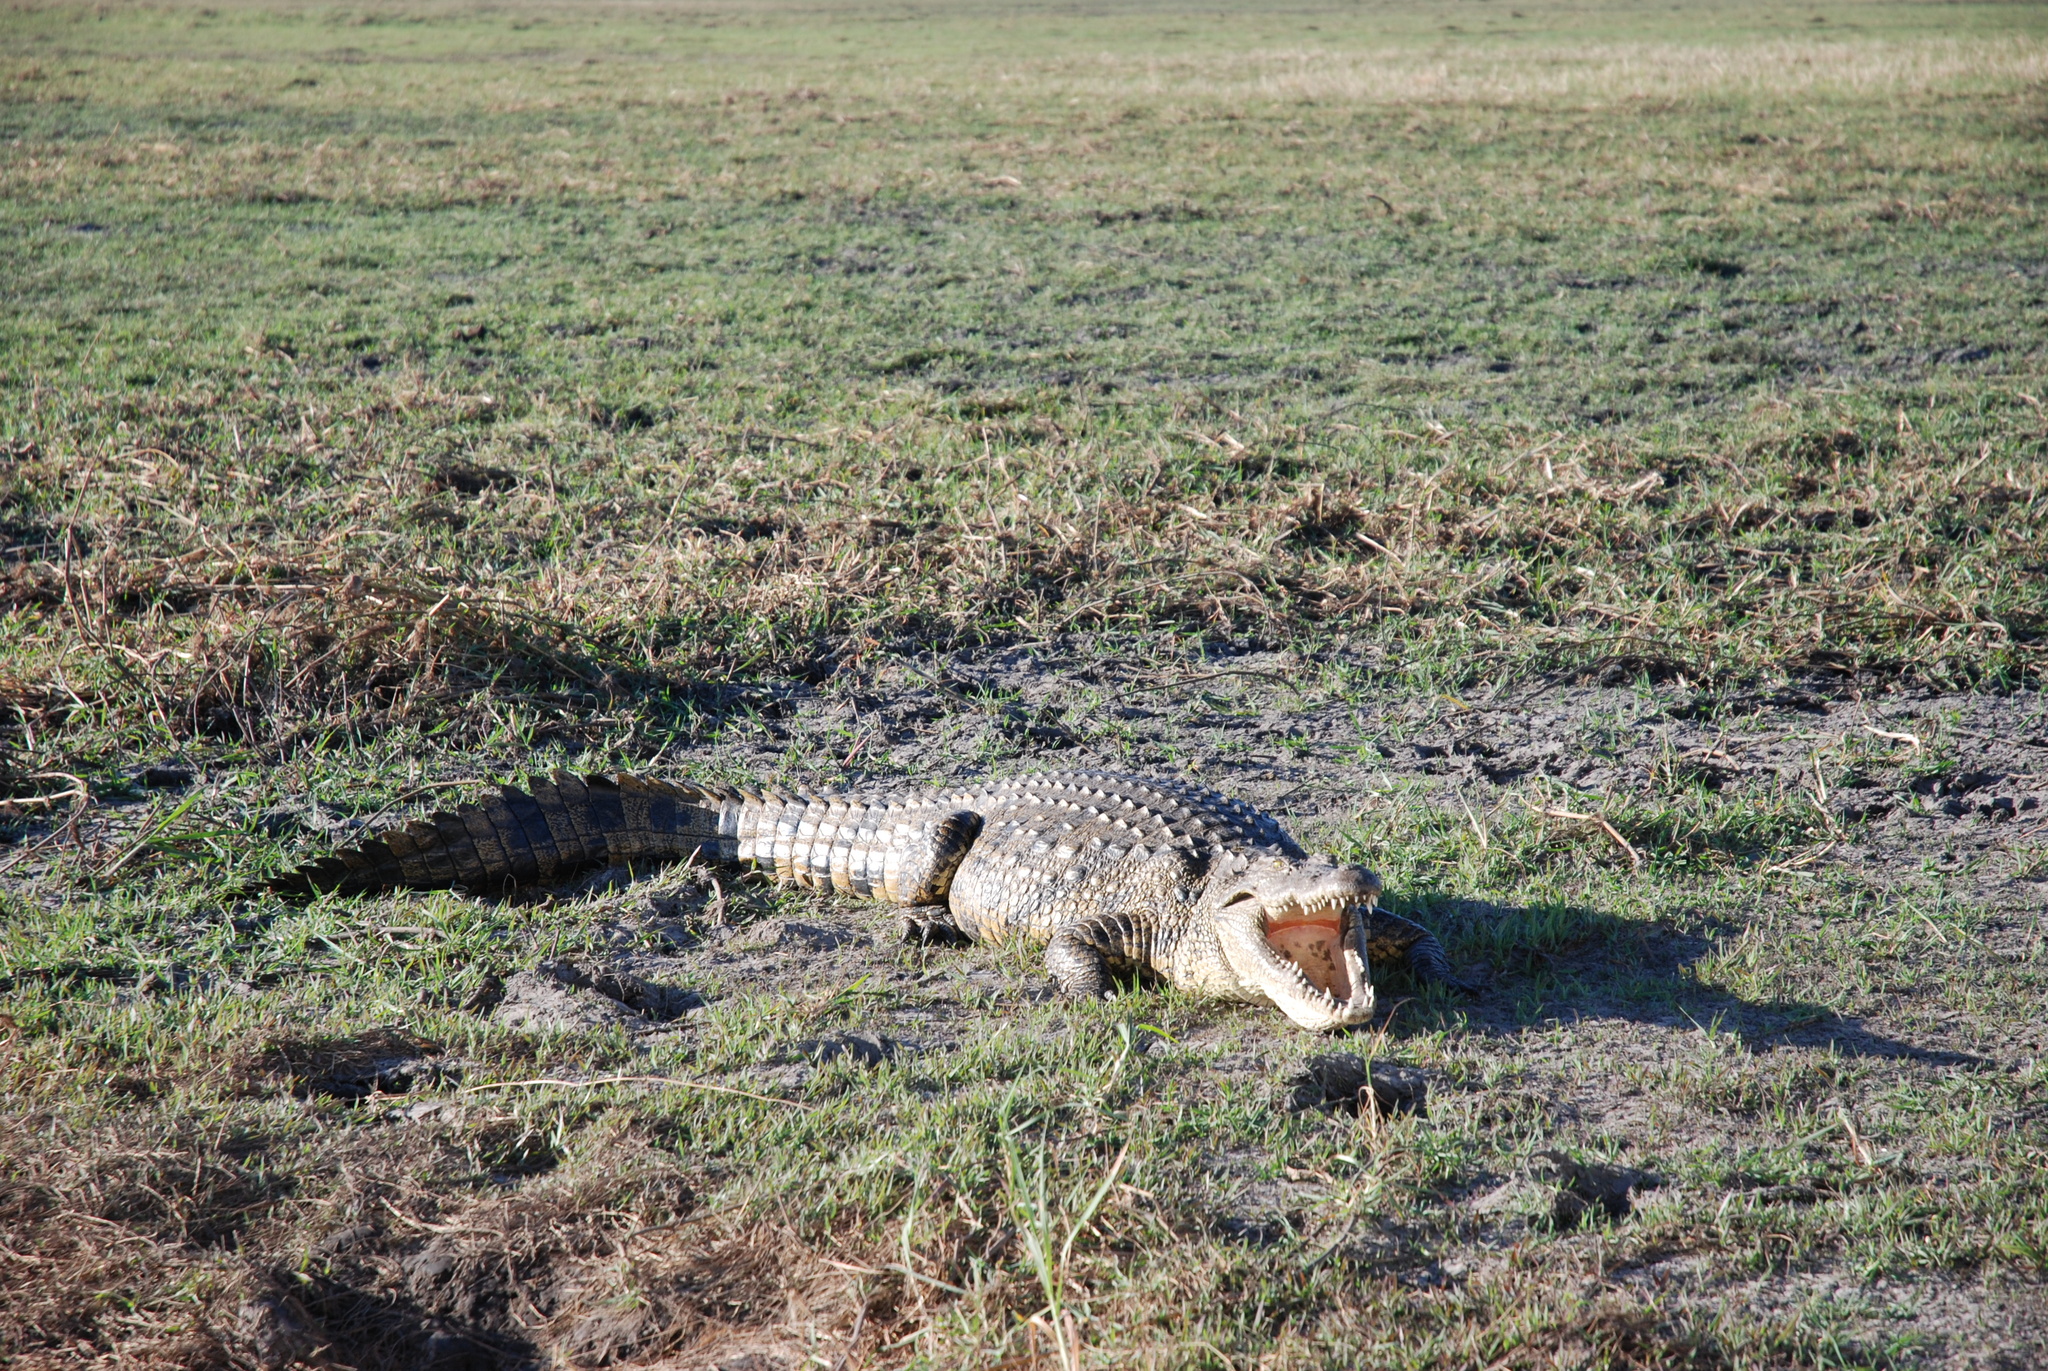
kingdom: Animalia
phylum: Chordata
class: Crocodylia
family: Crocodylidae
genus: Crocodylus
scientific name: Crocodylus niloticus
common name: Nile crocodile
